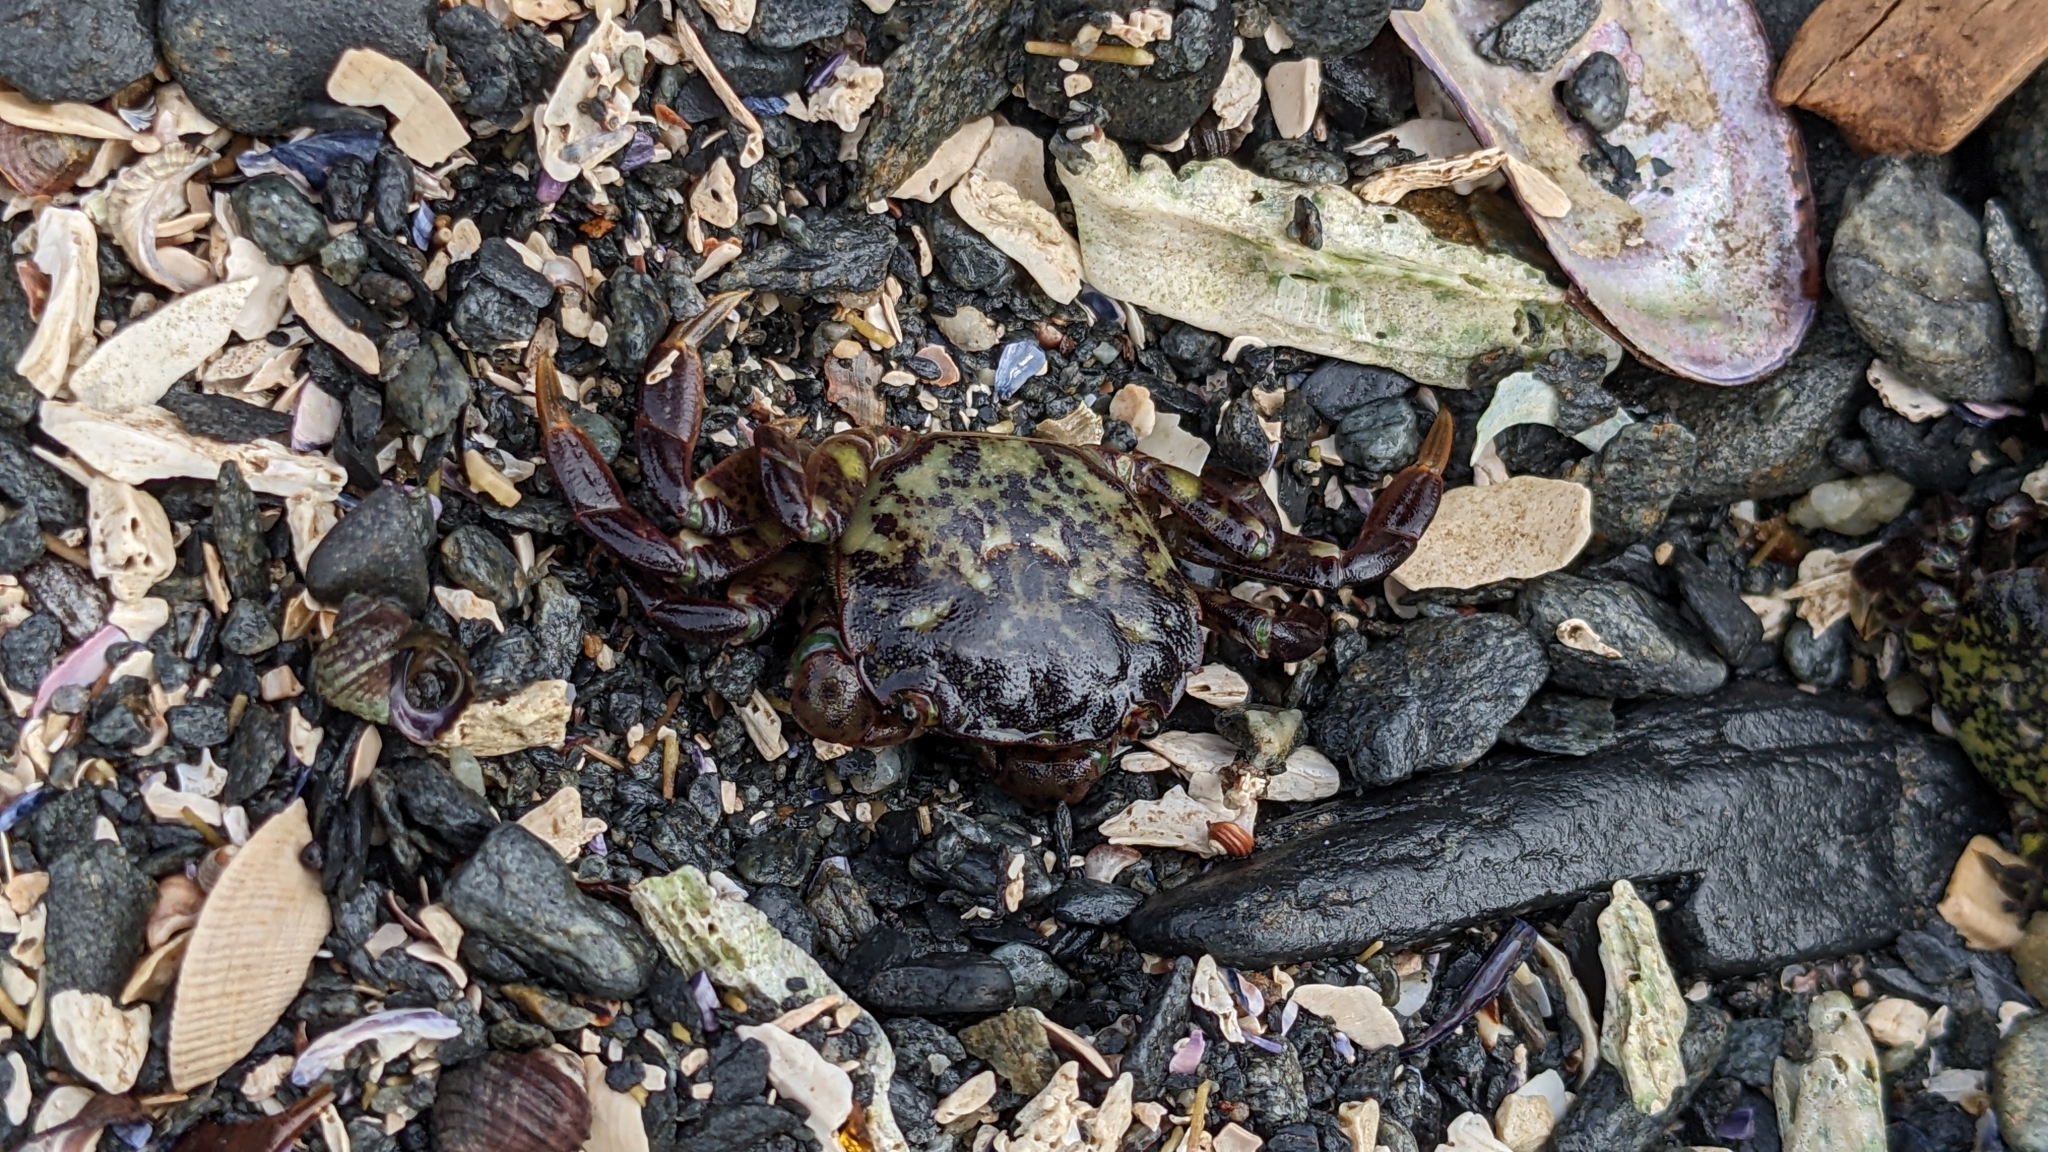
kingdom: Animalia
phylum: Arthropoda
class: Malacostraca
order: Decapoda
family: Varunidae
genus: Hemigrapsus
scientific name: Hemigrapsus nudus
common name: Purple shore crab
